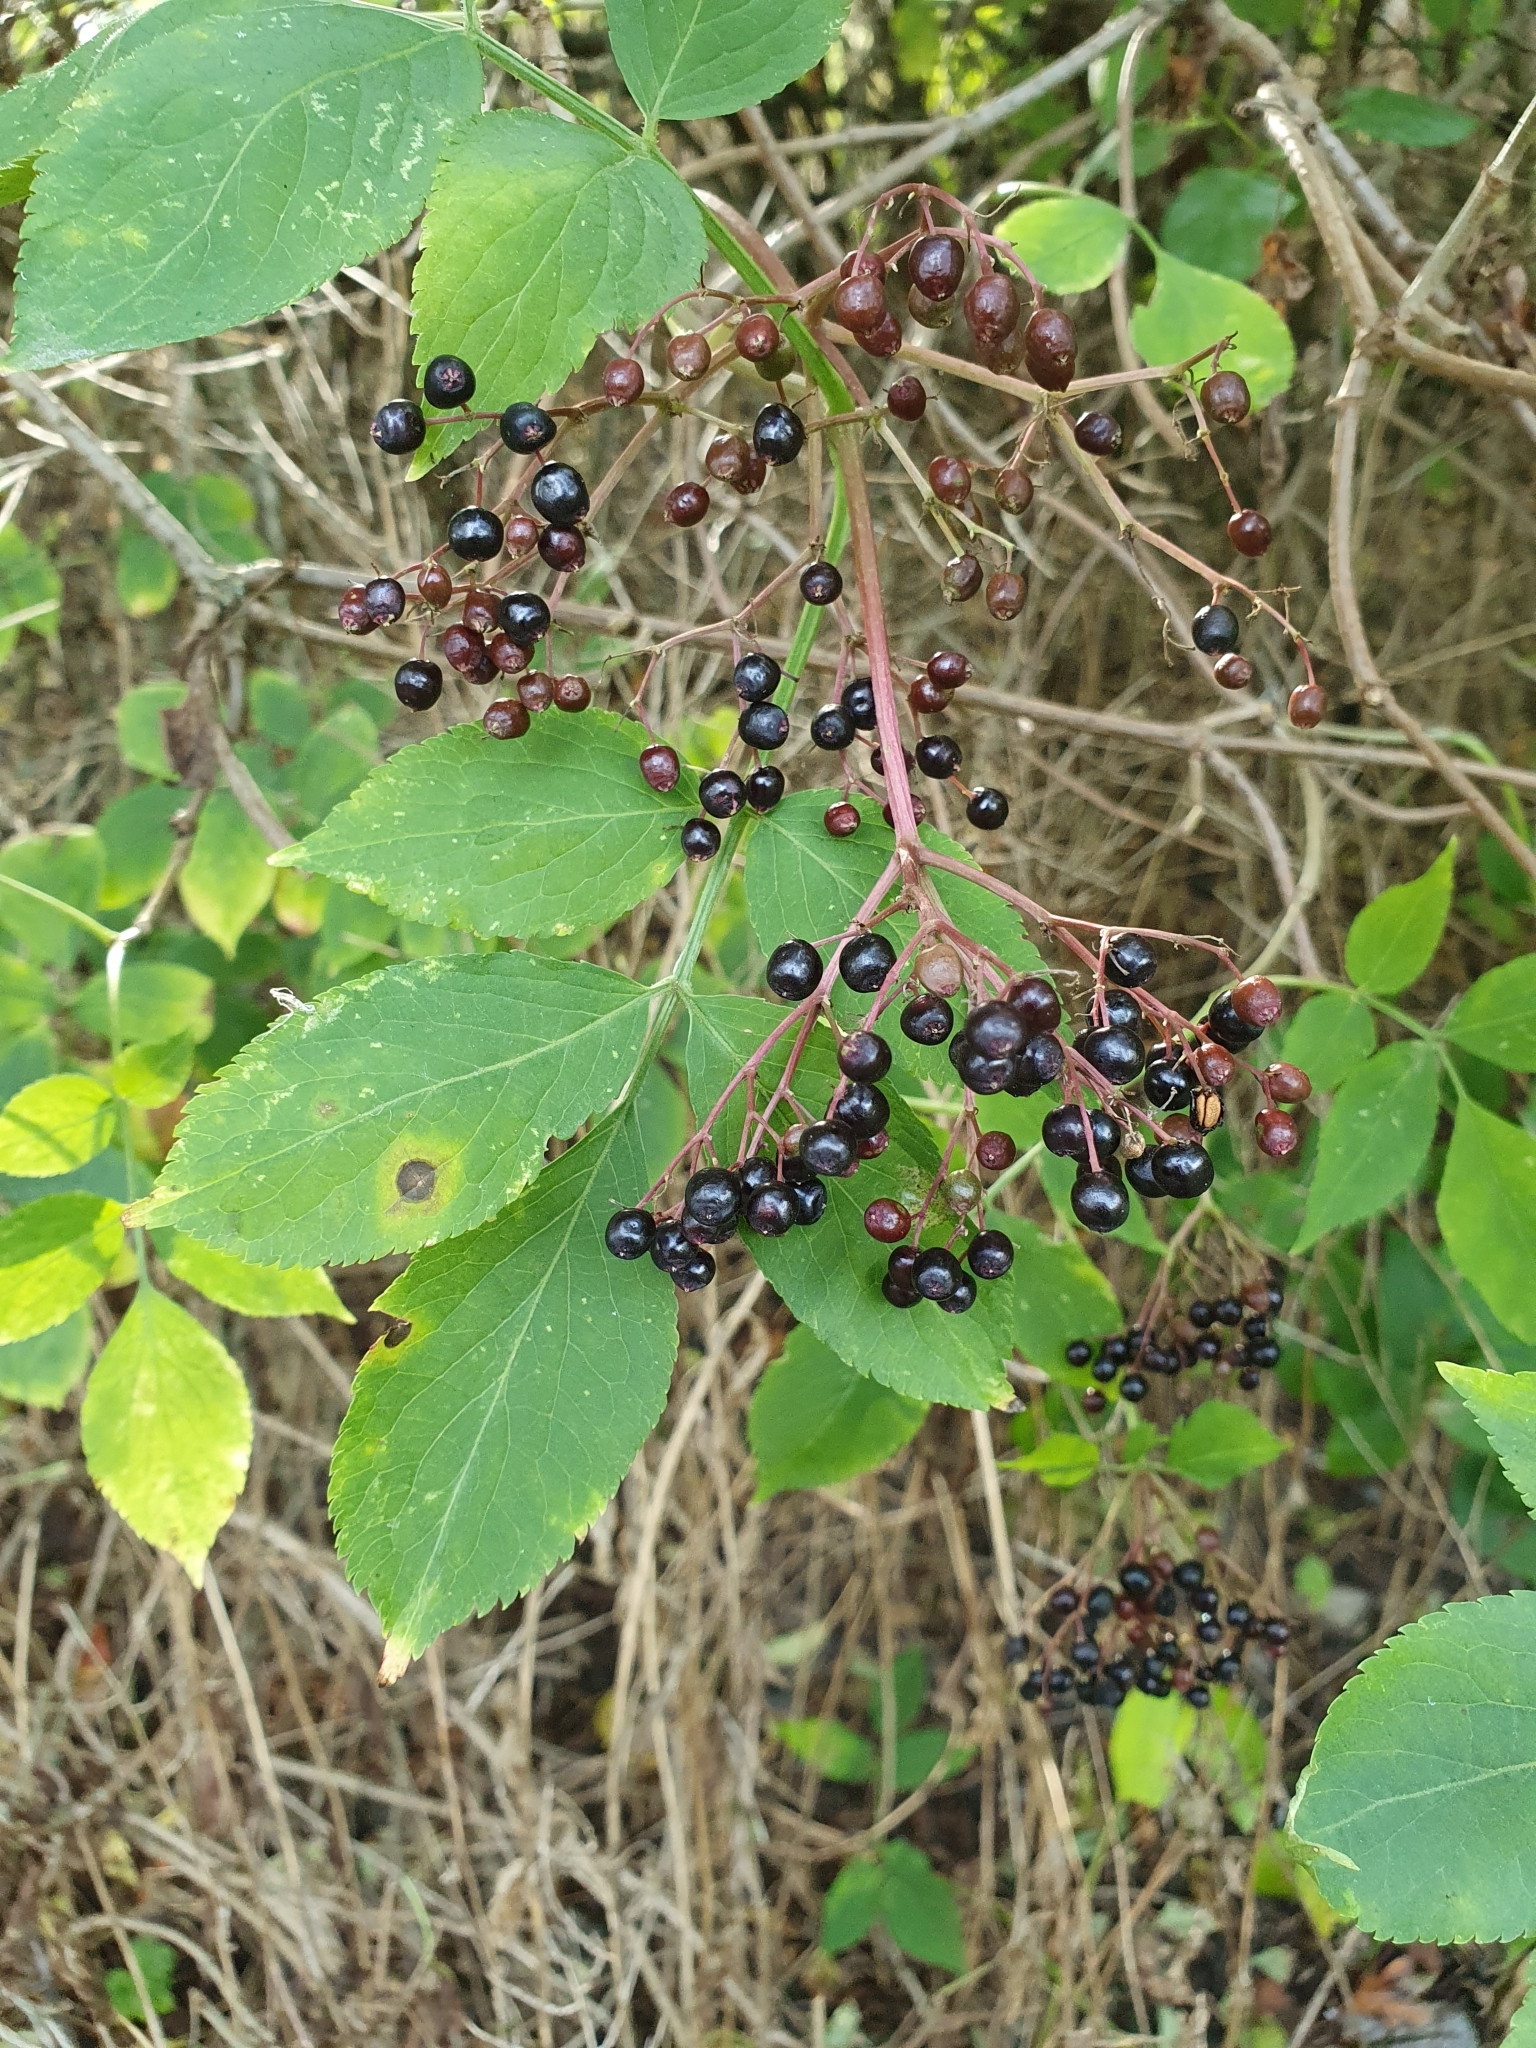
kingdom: Plantae
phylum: Tracheophyta
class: Magnoliopsida
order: Dipsacales
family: Viburnaceae
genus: Sambucus
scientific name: Sambucus nigra
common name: Elder
